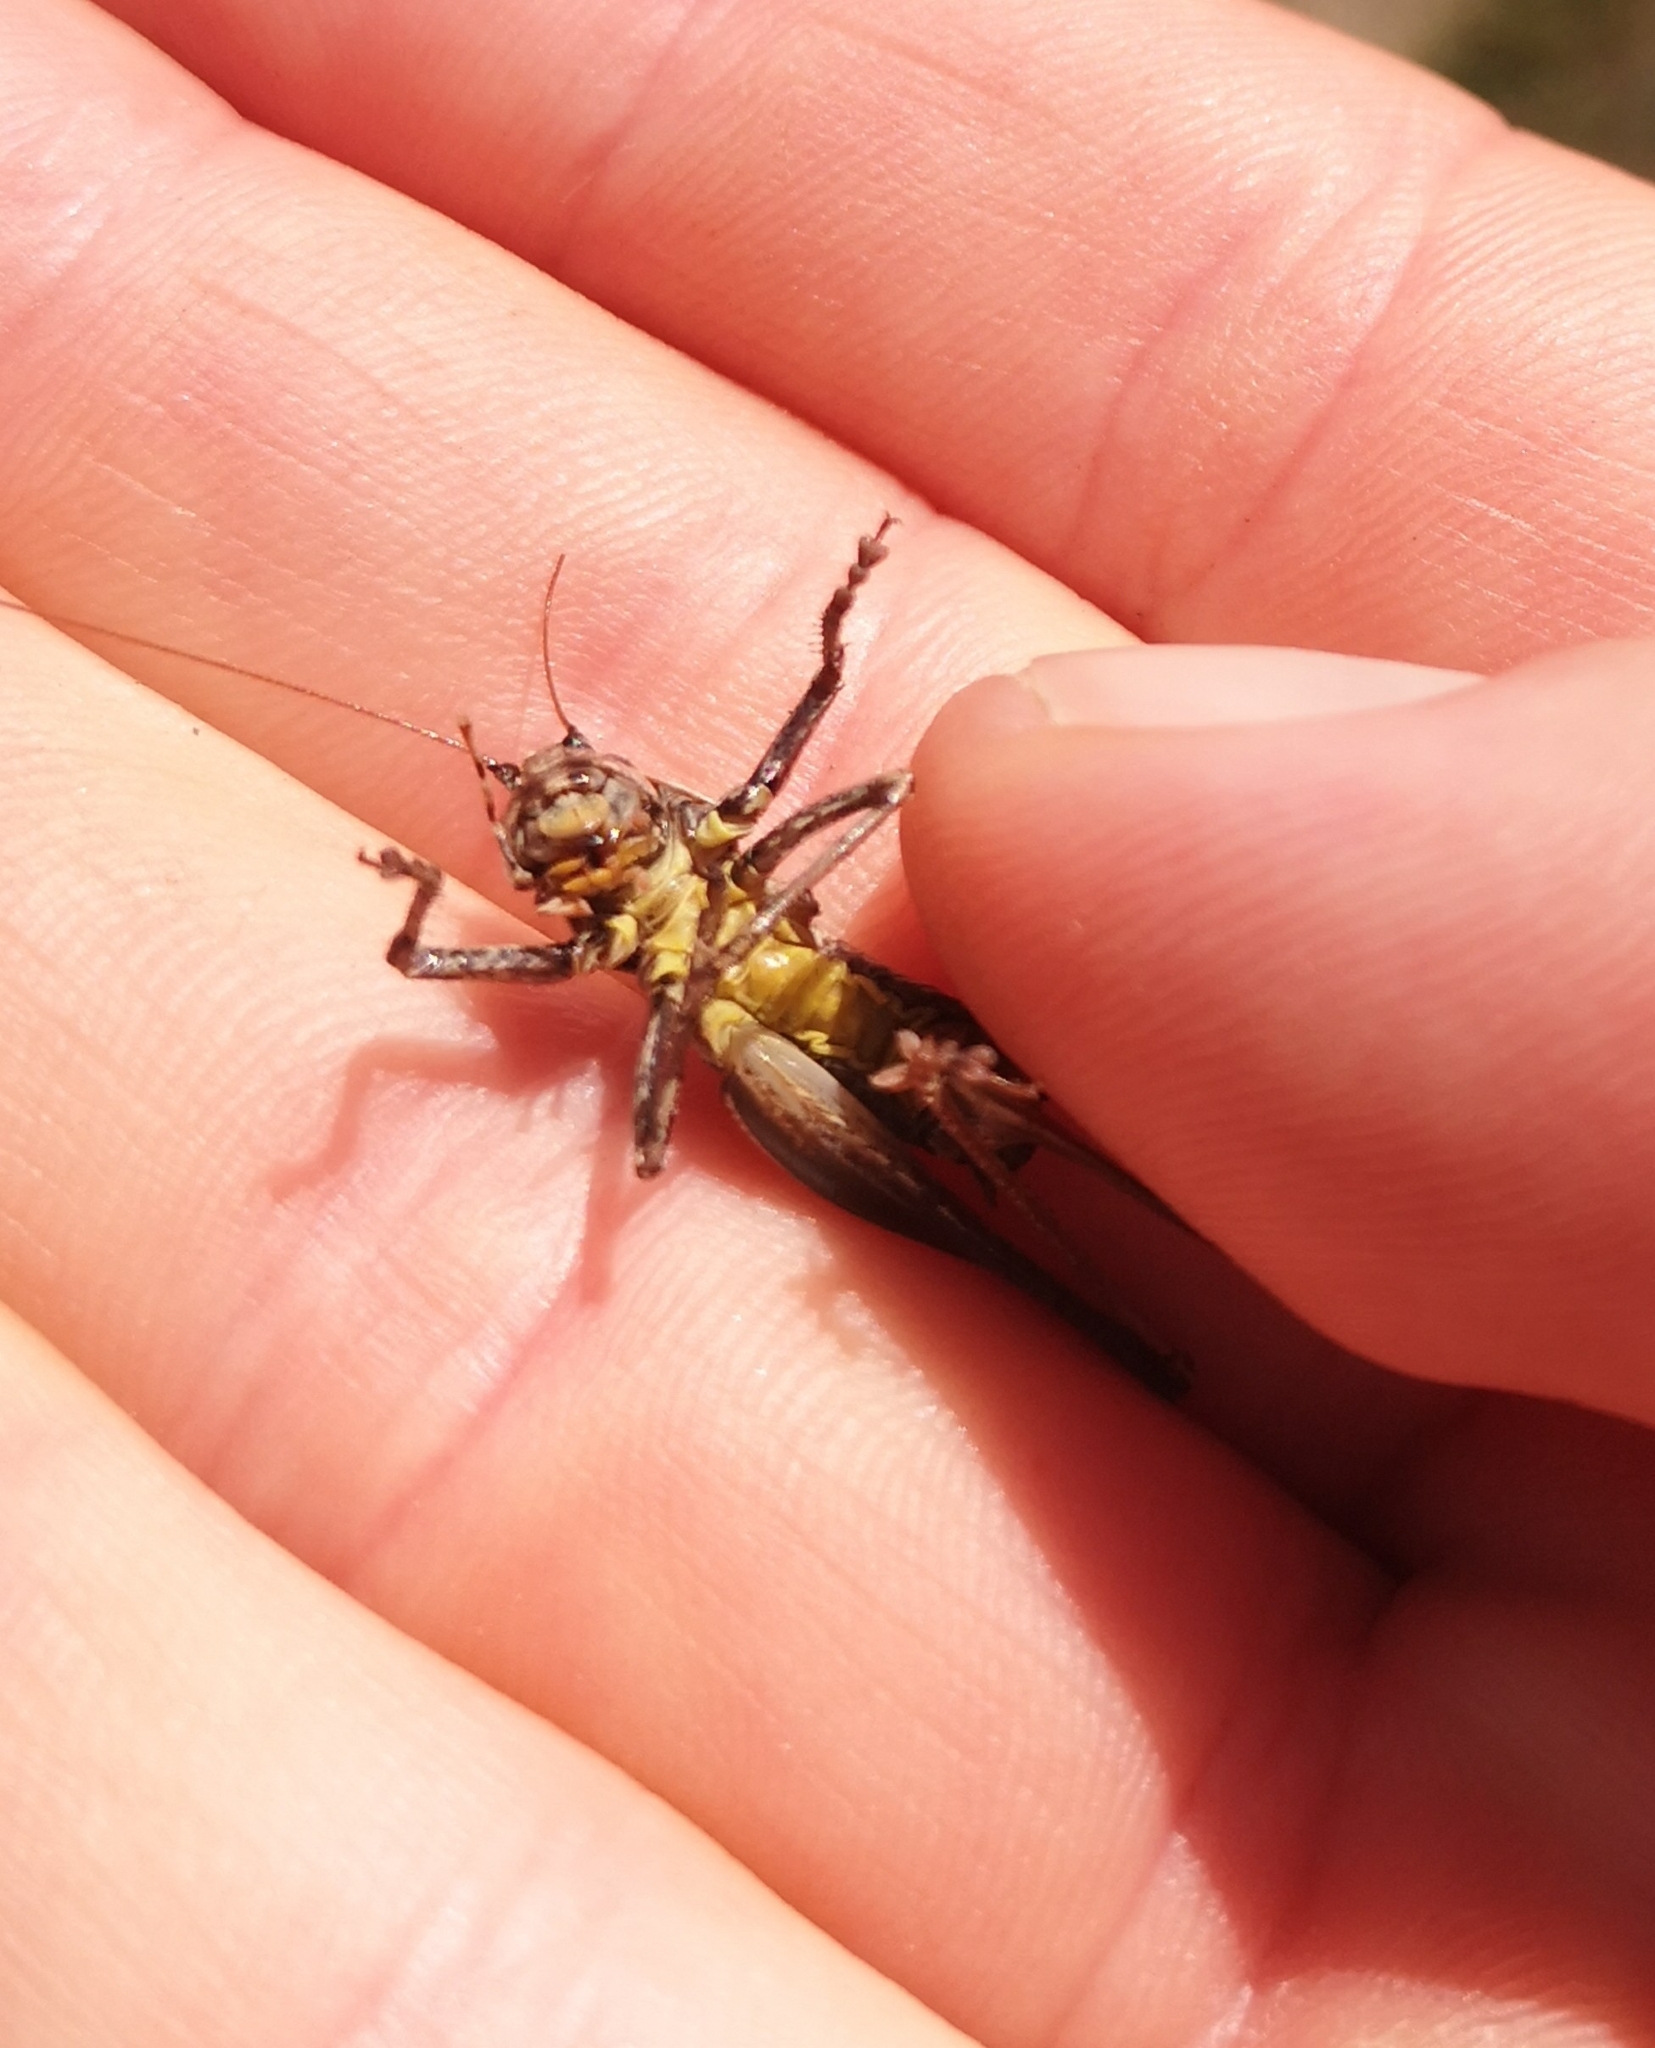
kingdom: Animalia
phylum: Arthropoda
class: Insecta
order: Orthoptera
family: Tettigoniidae
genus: Pholidoptera
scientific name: Pholidoptera griseoaptera
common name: Dark bush-cricket
